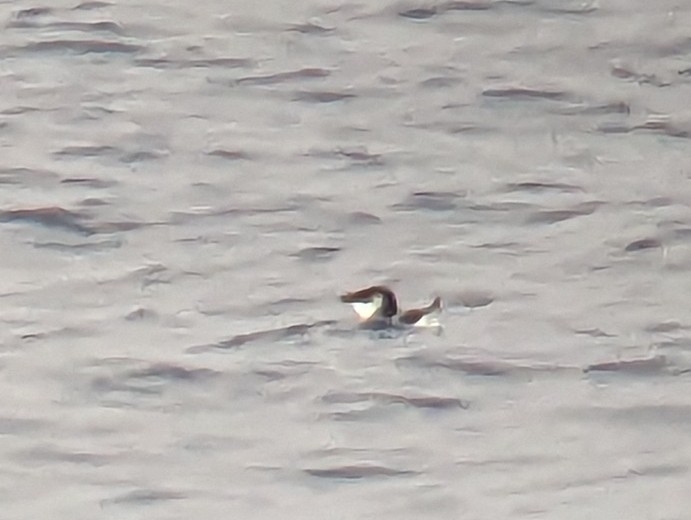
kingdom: Animalia
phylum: Chordata
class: Aves
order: Charadriiformes
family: Alcidae
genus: Alca
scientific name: Alca torda
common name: Razorbill
